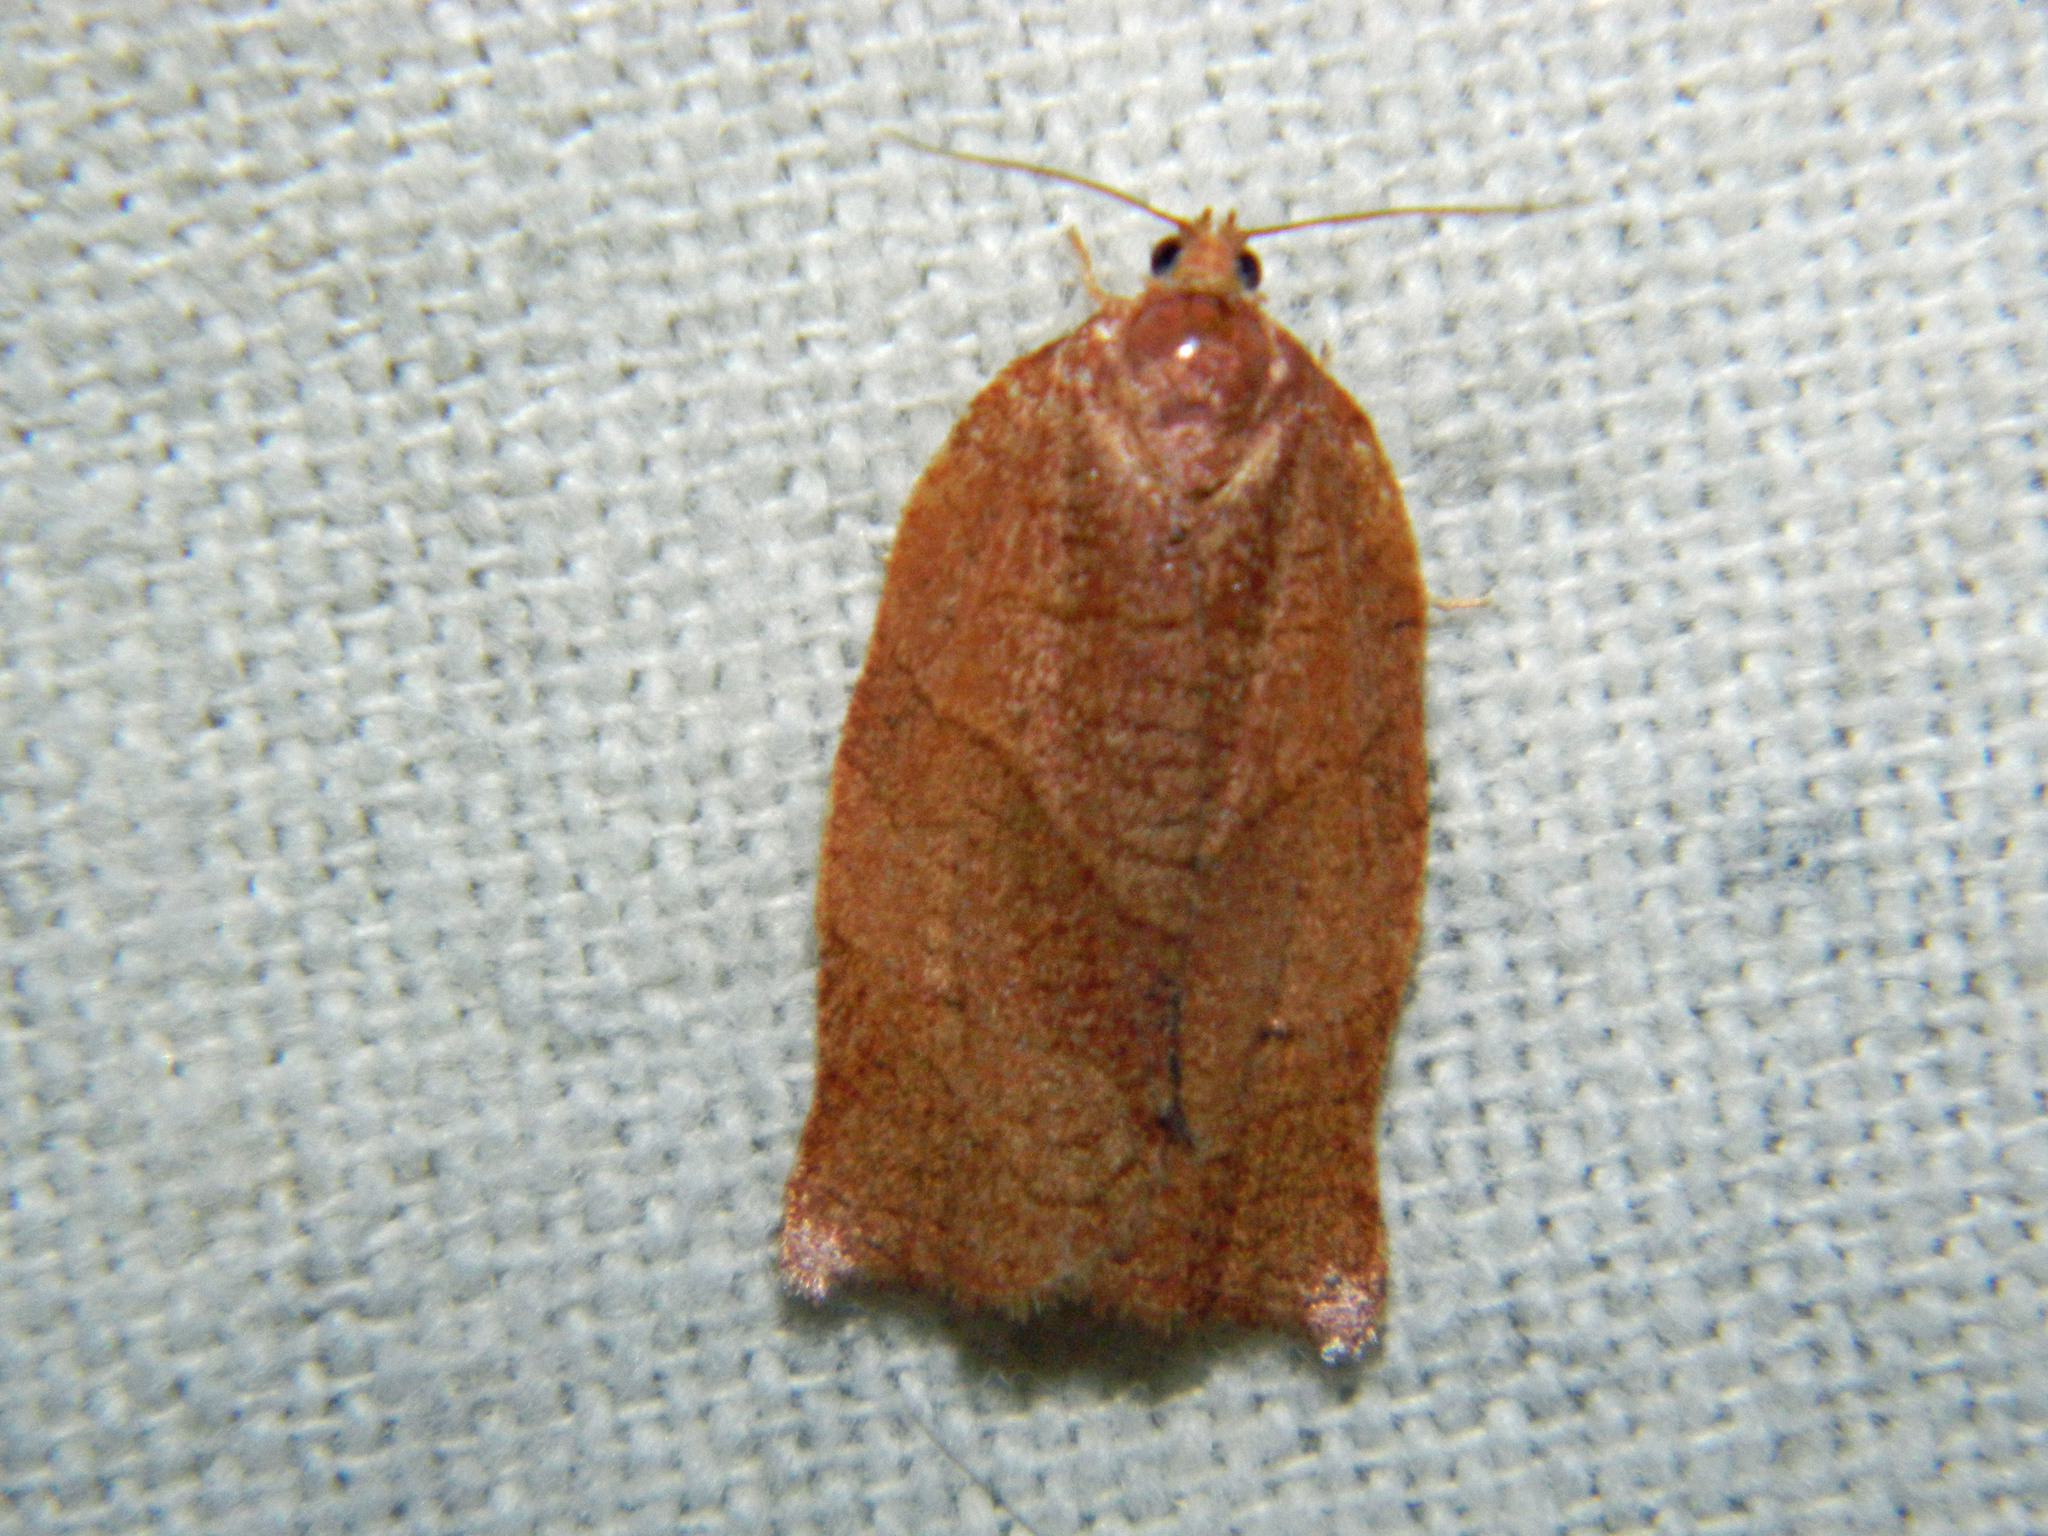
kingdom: Animalia
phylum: Arthropoda
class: Insecta
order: Lepidoptera
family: Tortricidae
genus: Choristoneura
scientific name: Choristoneura rosaceana
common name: Oblique-banded leafroller moth
